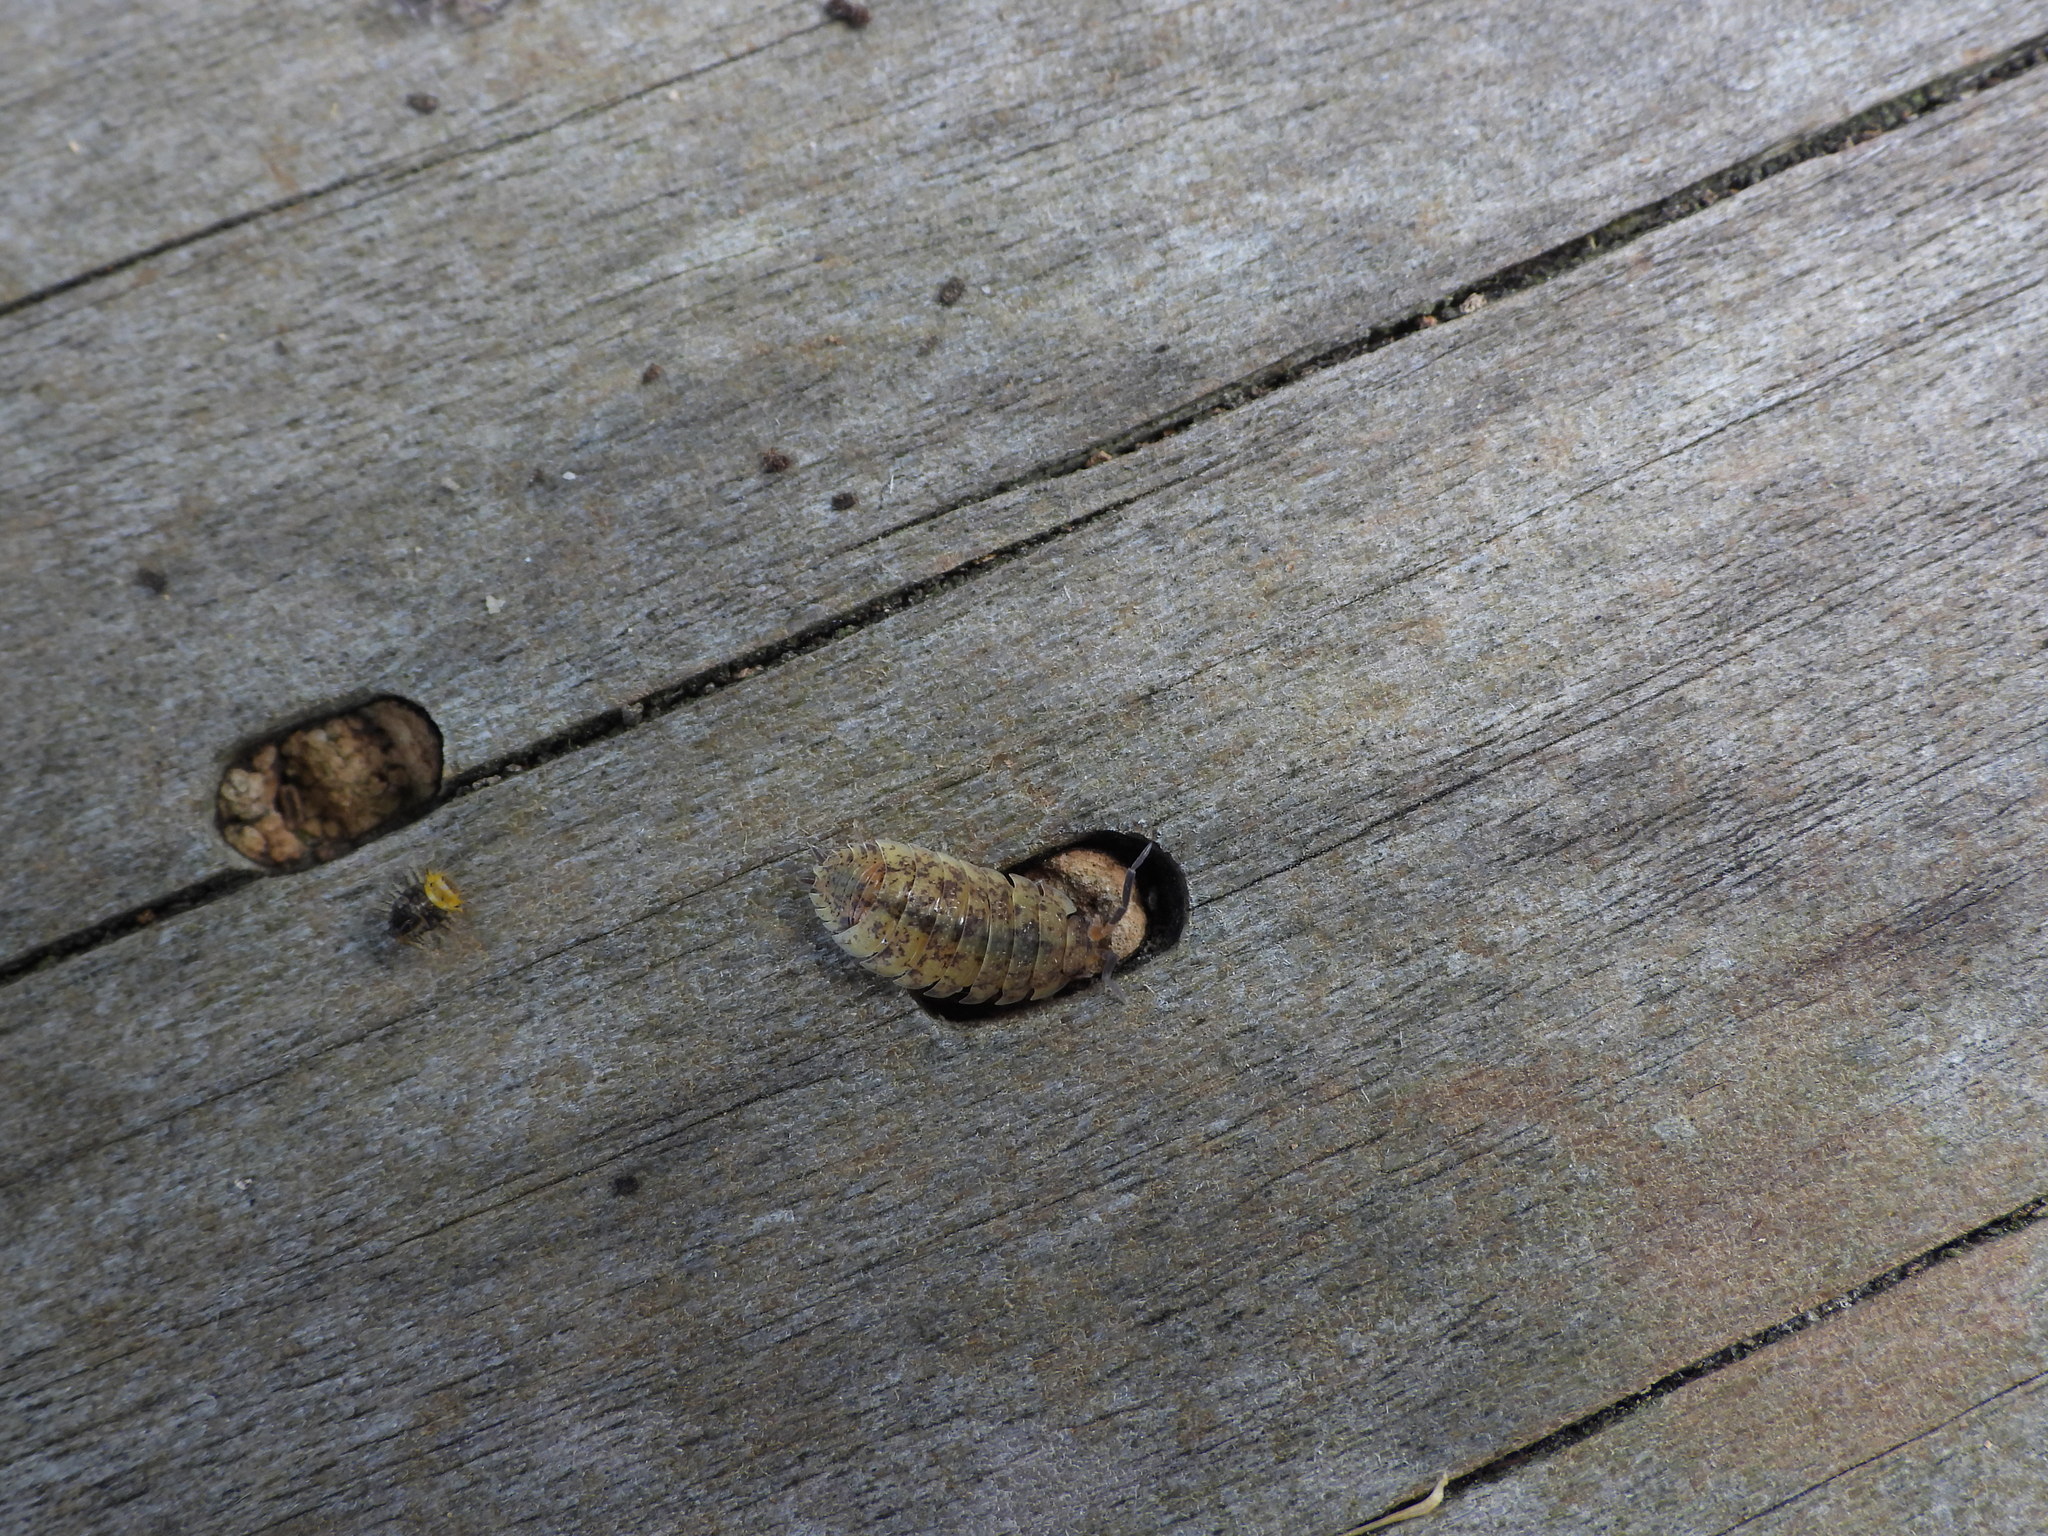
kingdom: Animalia
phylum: Arthropoda
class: Malacostraca
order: Isopoda
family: Porcellionidae
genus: Porcellio
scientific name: Porcellio scaber
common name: Common rough woodlouse
